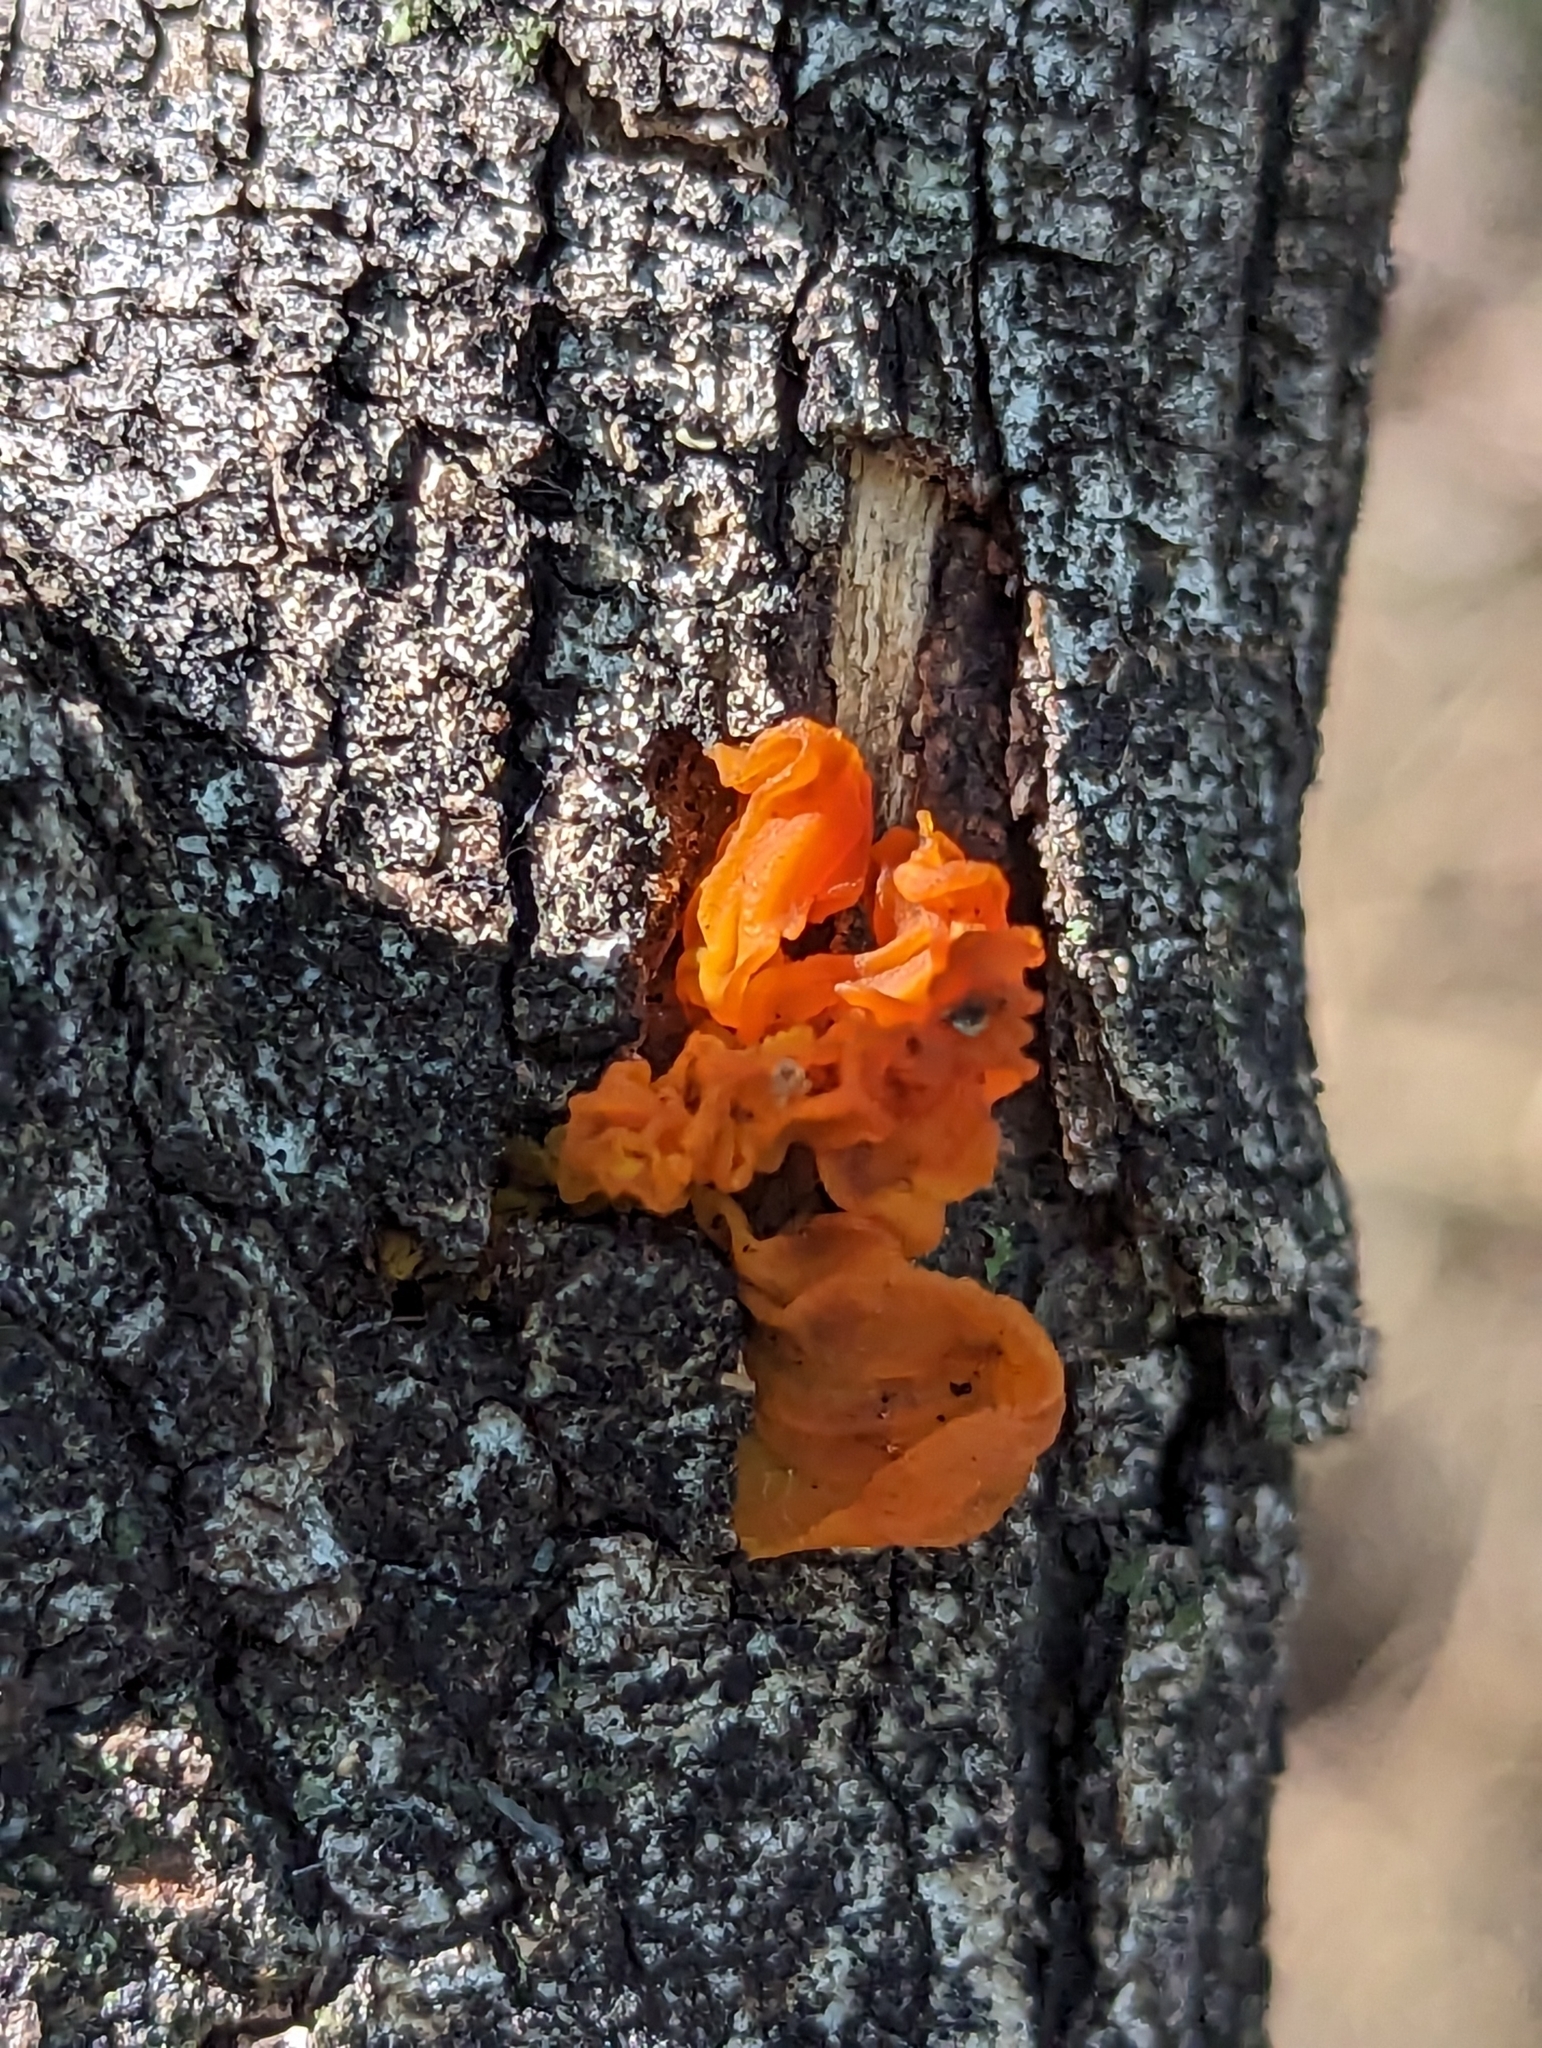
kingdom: Fungi
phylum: Basidiomycota
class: Tremellomycetes
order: Tremellales
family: Tremellaceae
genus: Tremella
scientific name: Tremella mesenterica
